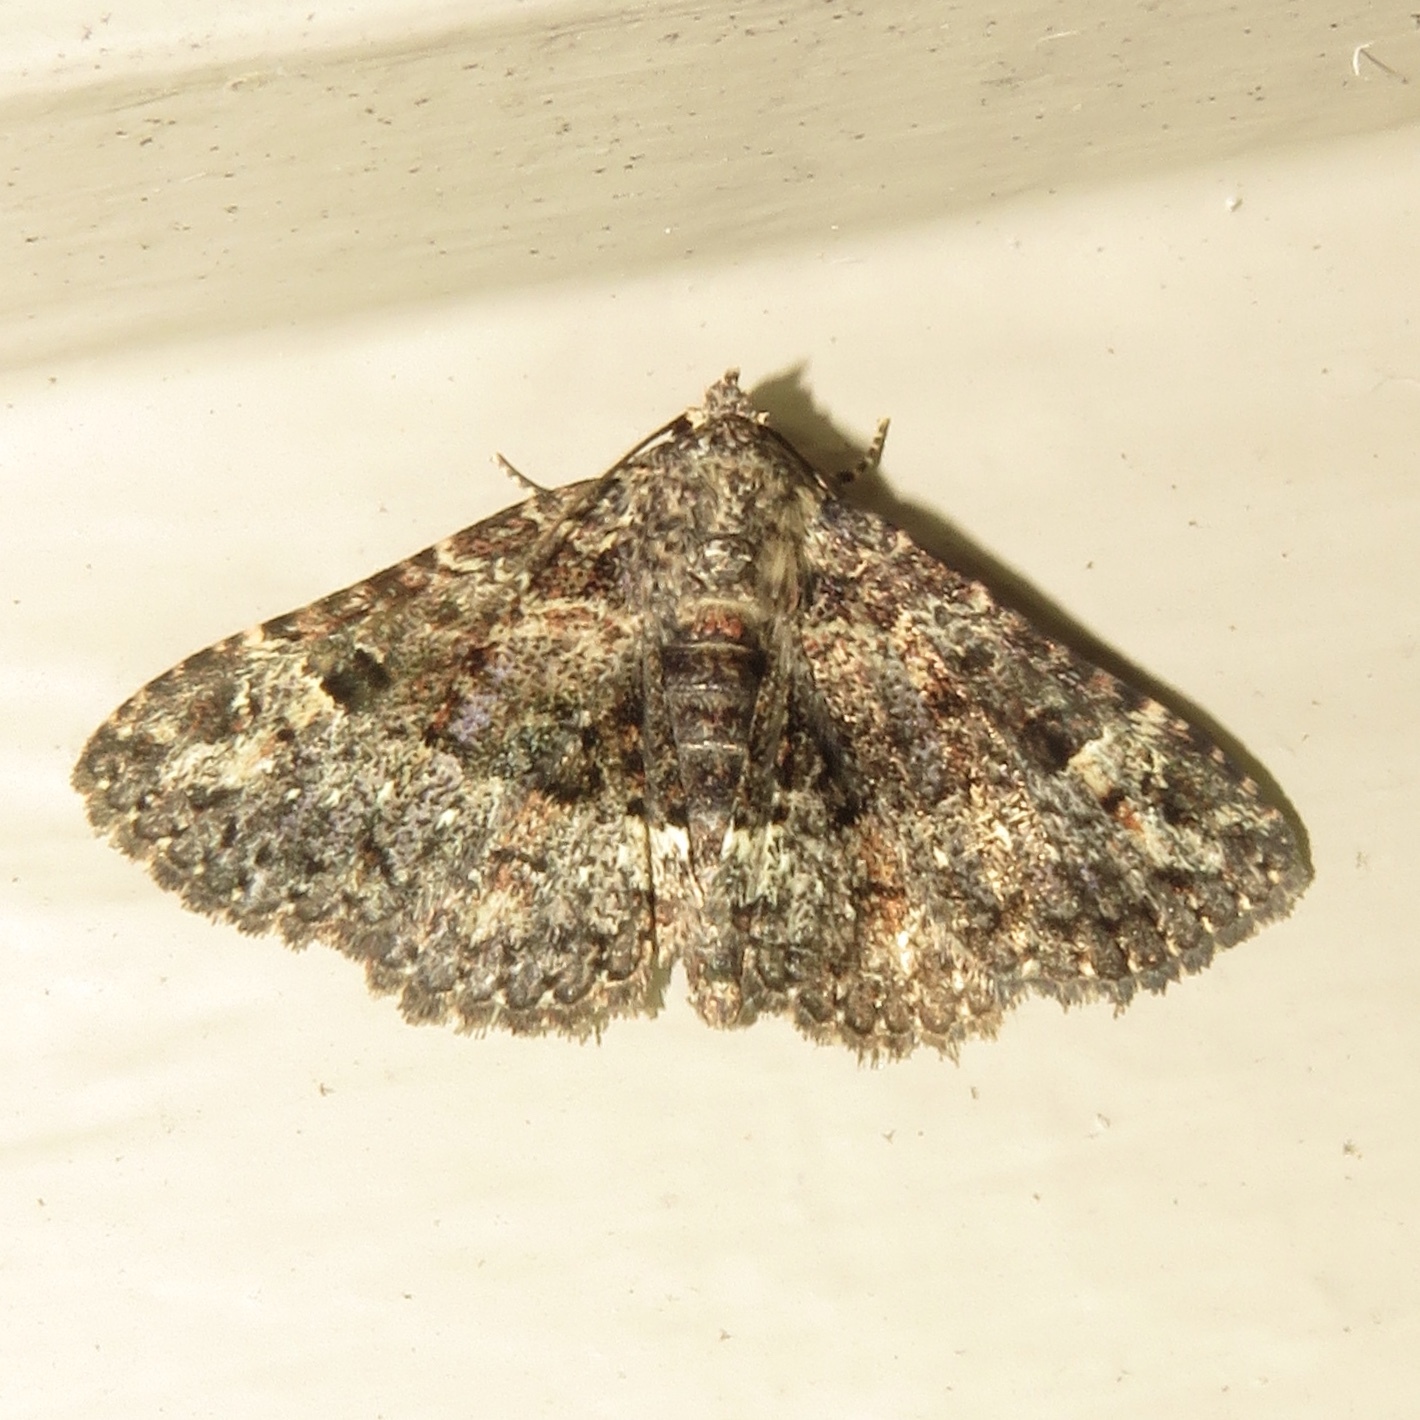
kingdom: Animalia
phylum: Arthropoda
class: Insecta
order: Lepidoptera
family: Erebidae
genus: Metalectra
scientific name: Metalectra discalis
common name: Common fungus moth
